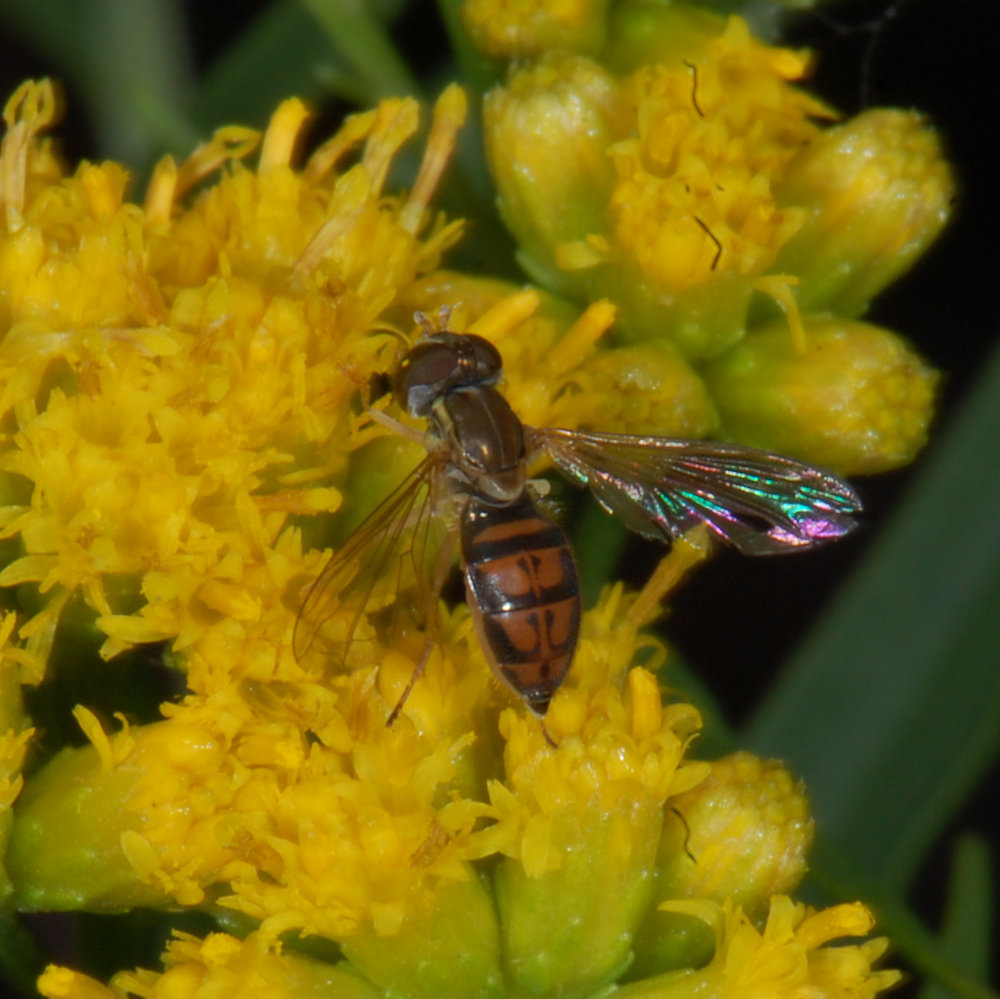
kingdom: Animalia
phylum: Arthropoda
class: Insecta
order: Diptera
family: Syrphidae
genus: Toxomerus
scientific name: Toxomerus marginatus
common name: Syrphid fly
